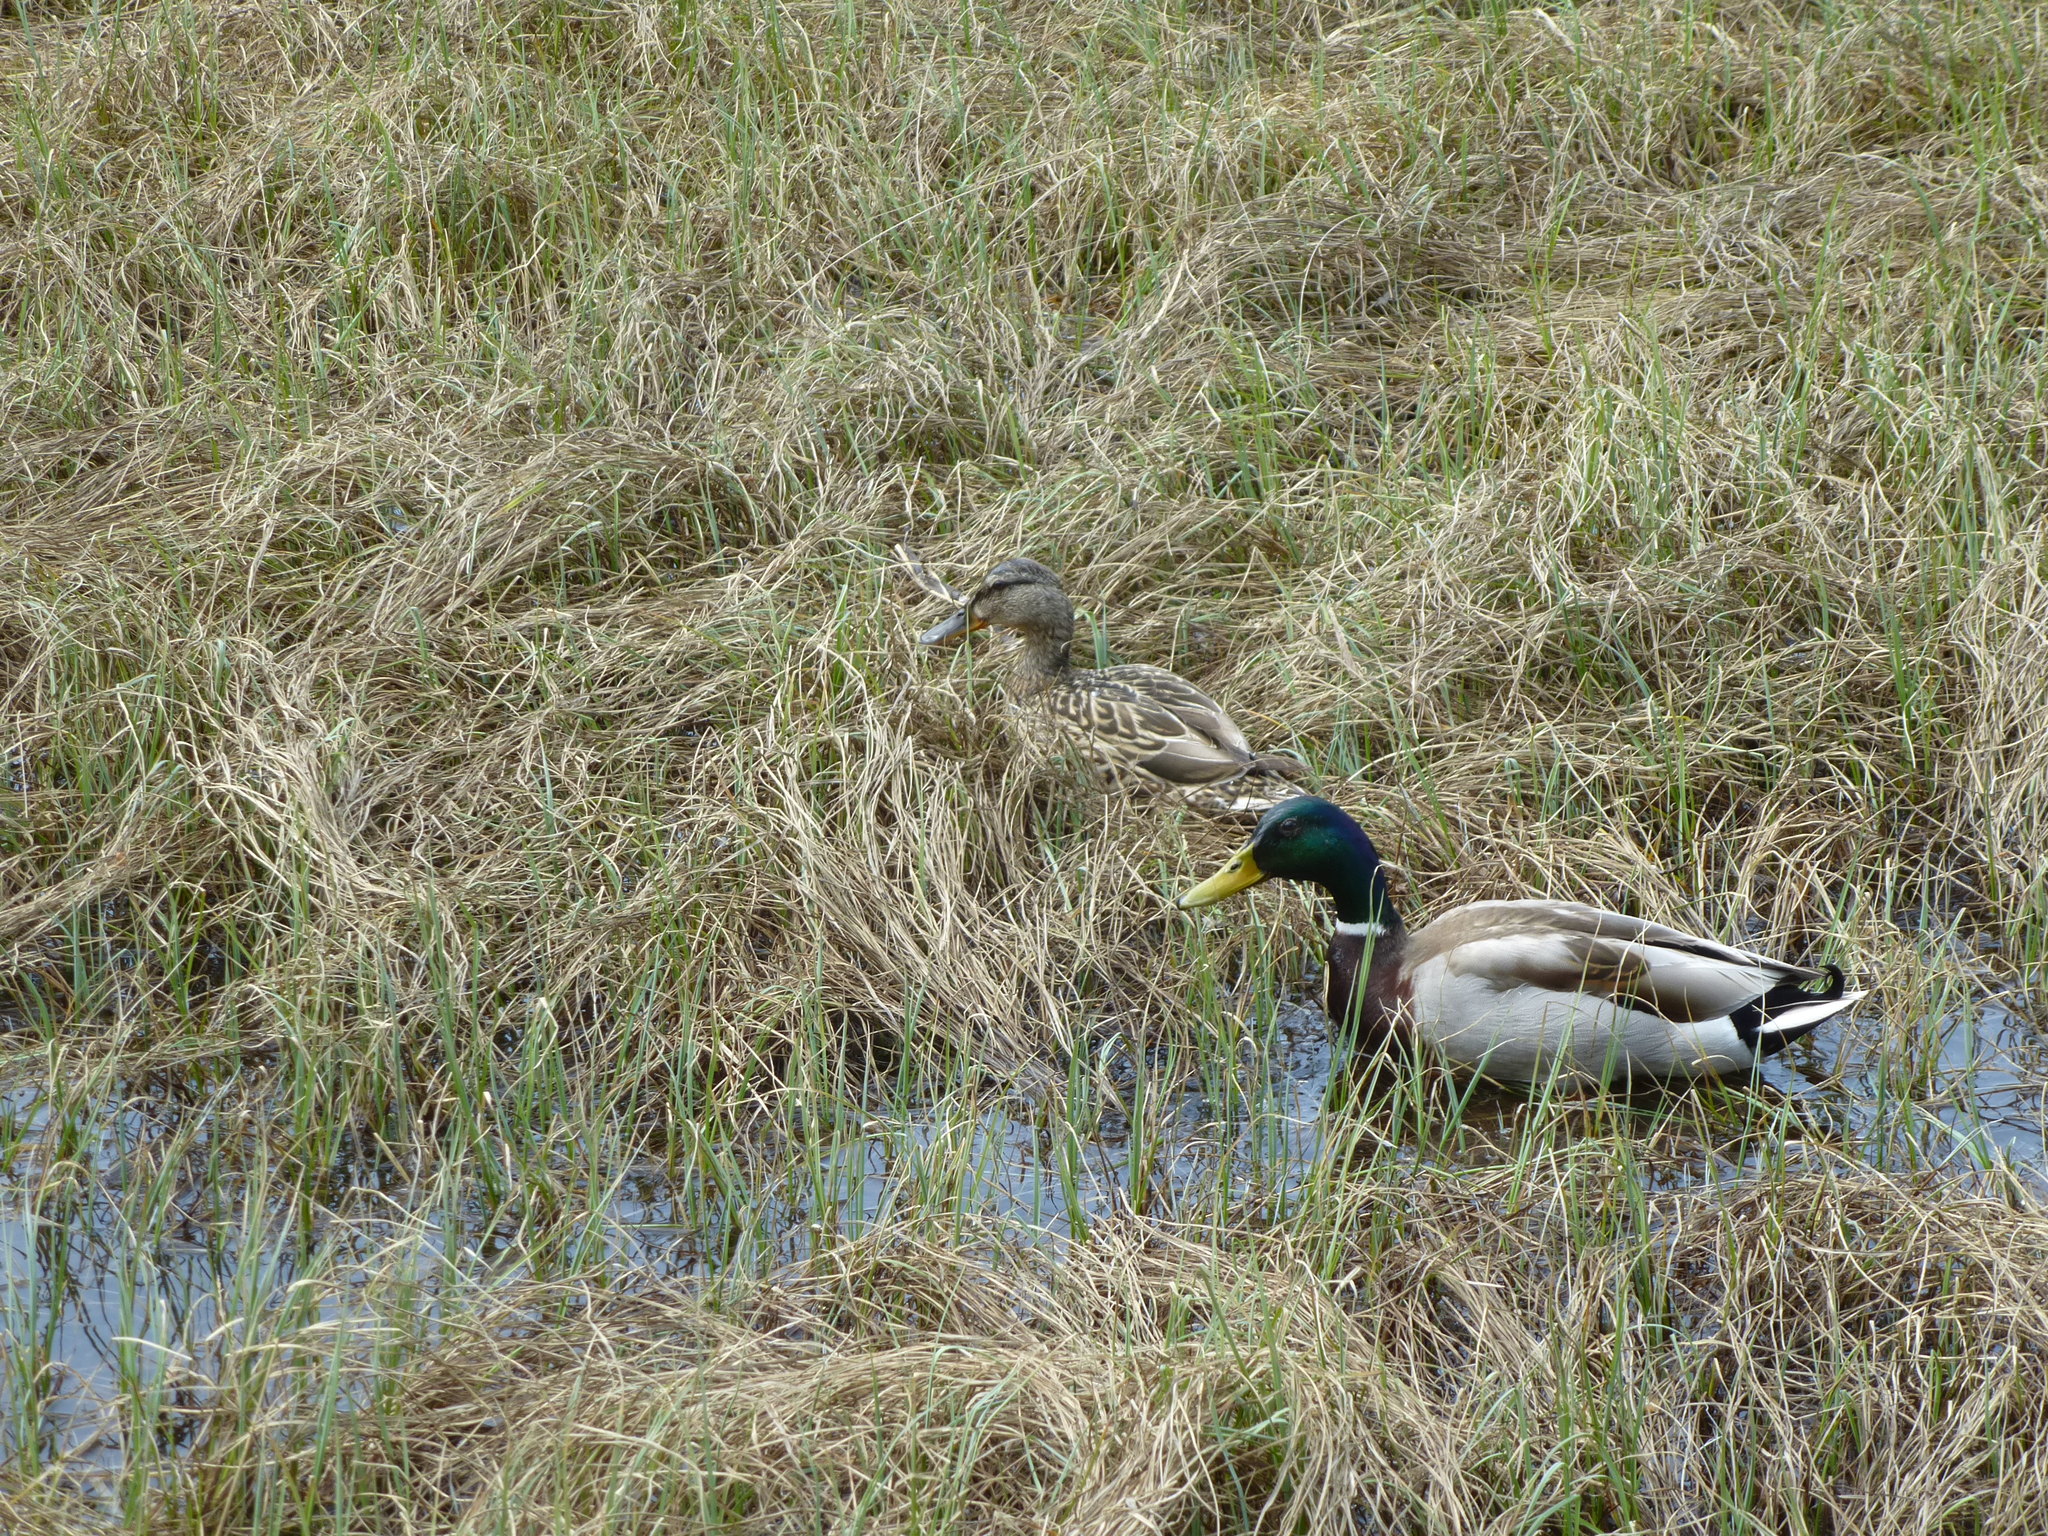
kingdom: Animalia
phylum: Chordata
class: Aves
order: Anseriformes
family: Anatidae
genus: Anas
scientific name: Anas platyrhynchos
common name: Mallard
